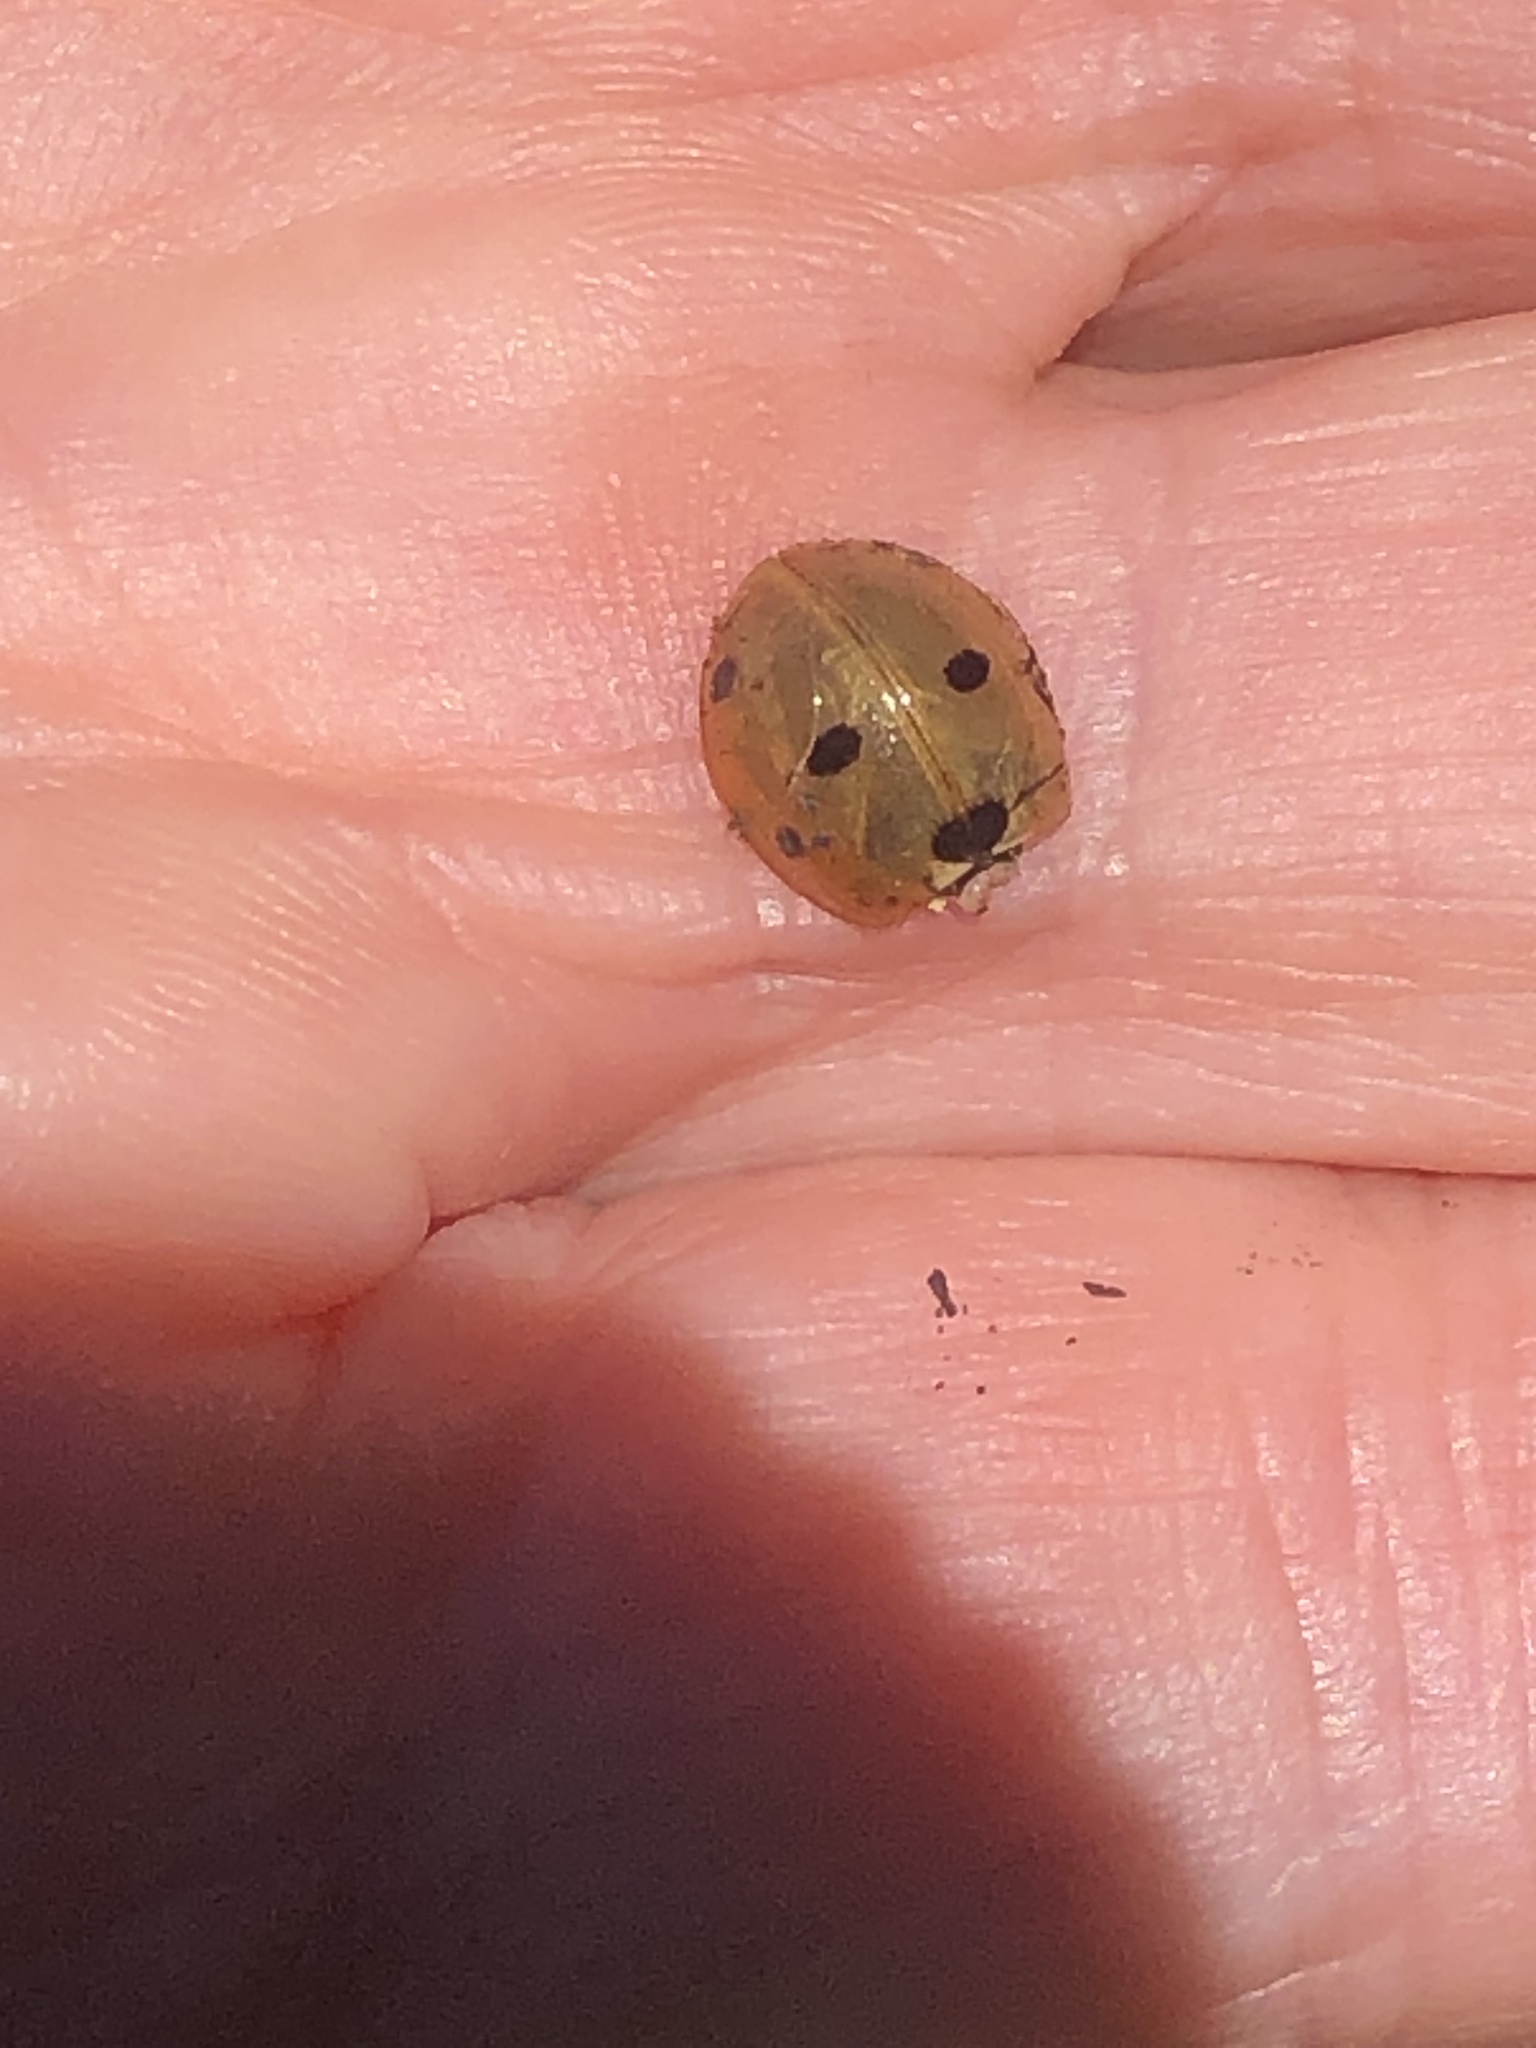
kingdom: Animalia
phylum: Arthropoda
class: Insecta
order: Coleoptera
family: Coccinellidae
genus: Coccinella
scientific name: Coccinella septempunctata
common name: Sevenspotted lady beetle
